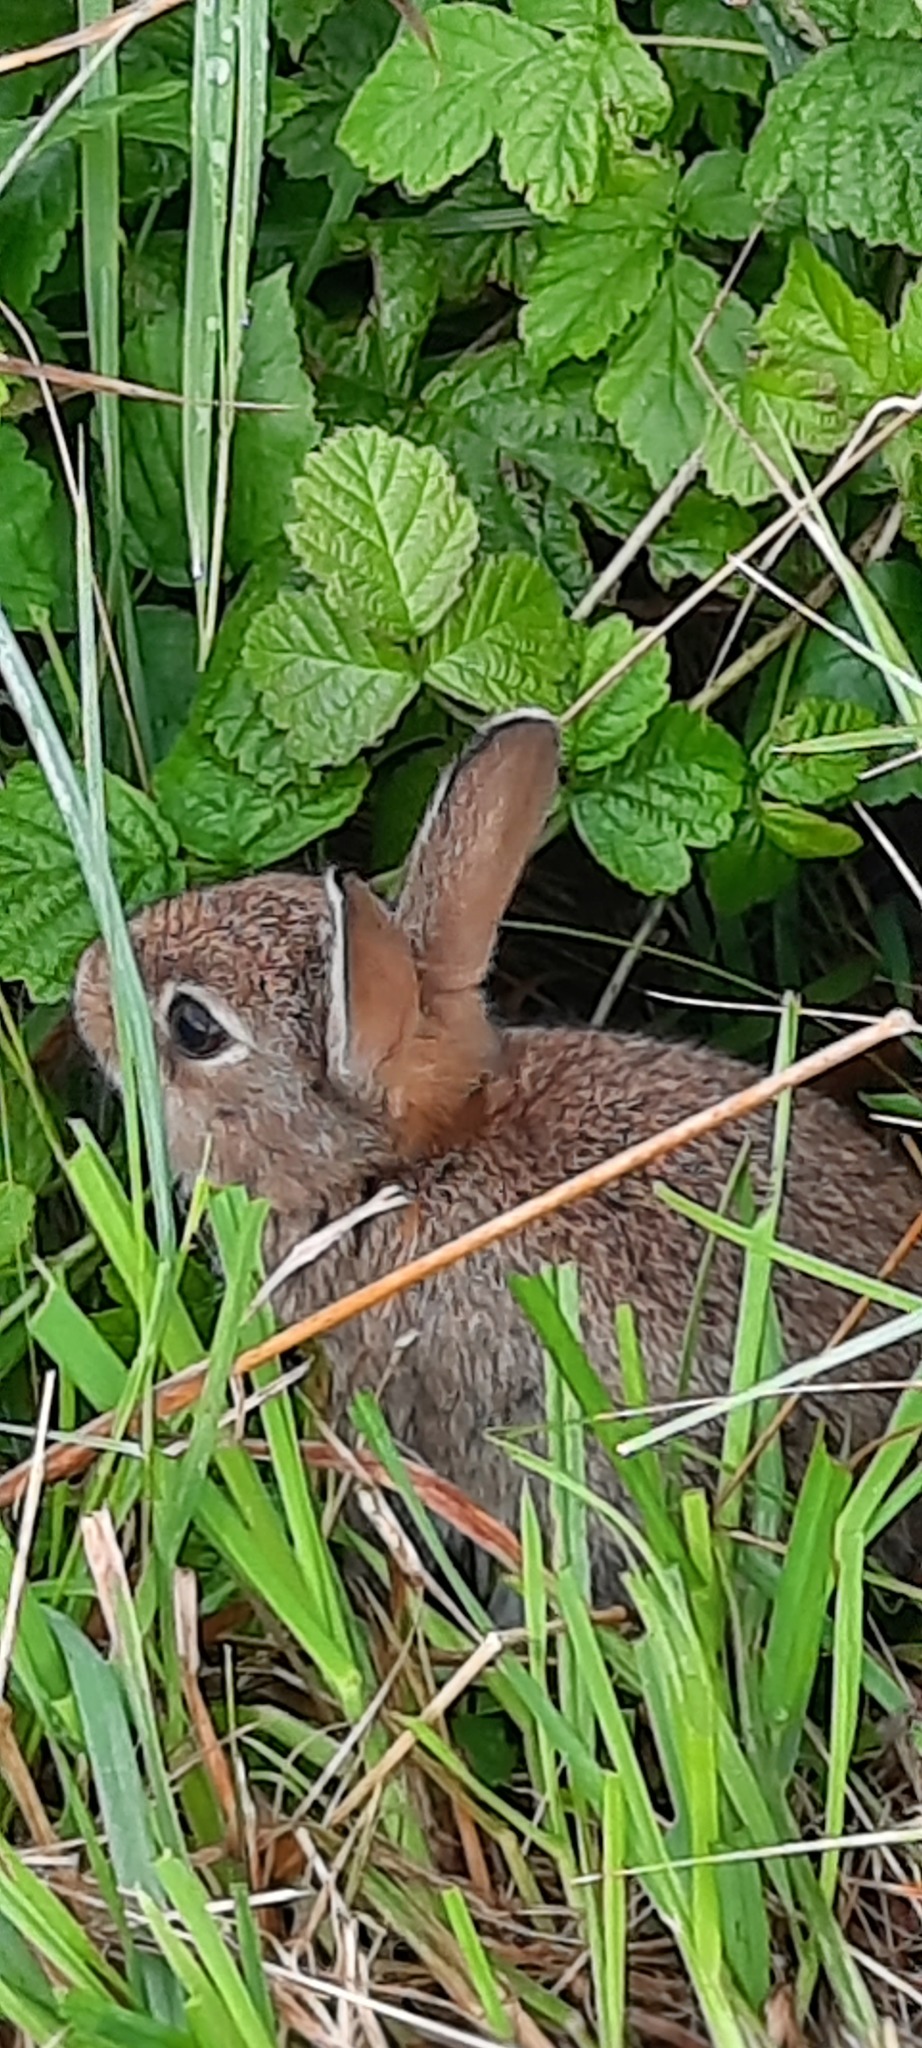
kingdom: Animalia
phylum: Chordata
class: Mammalia
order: Lagomorpha
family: Leporidae
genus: Oryctolagus
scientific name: Oryctolagus cuniculus
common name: European rabbit
